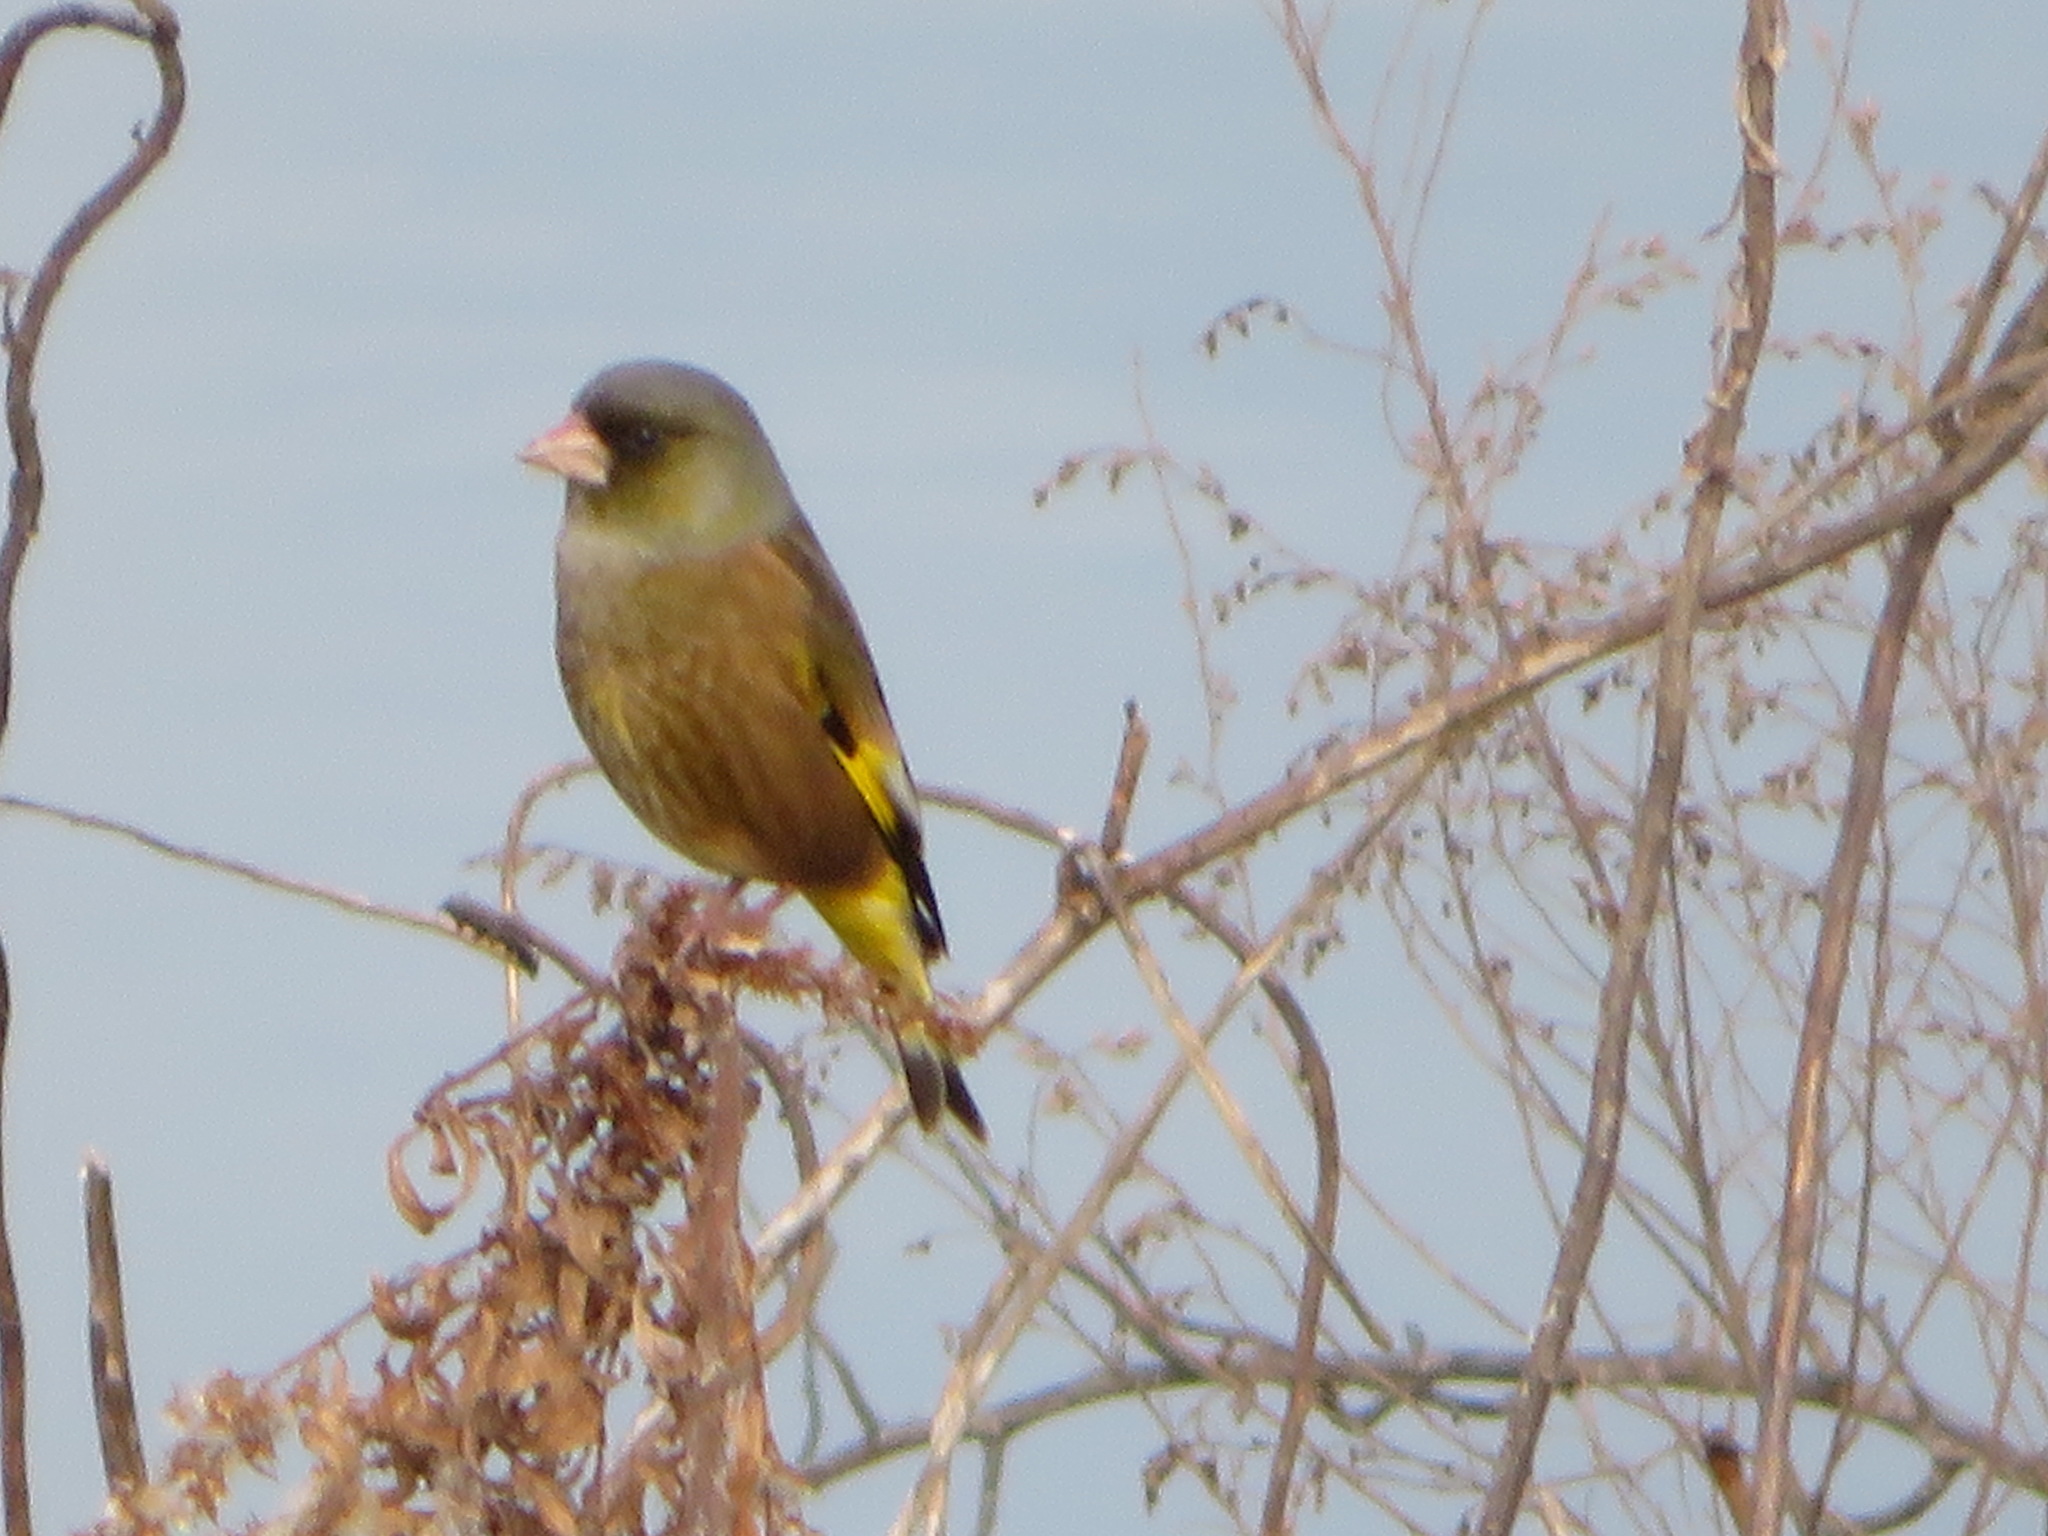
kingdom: Plantae
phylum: Tracheophyta
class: Liliopsida
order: Poales
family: Poaceae
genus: Chloris
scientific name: Chloris sinica
